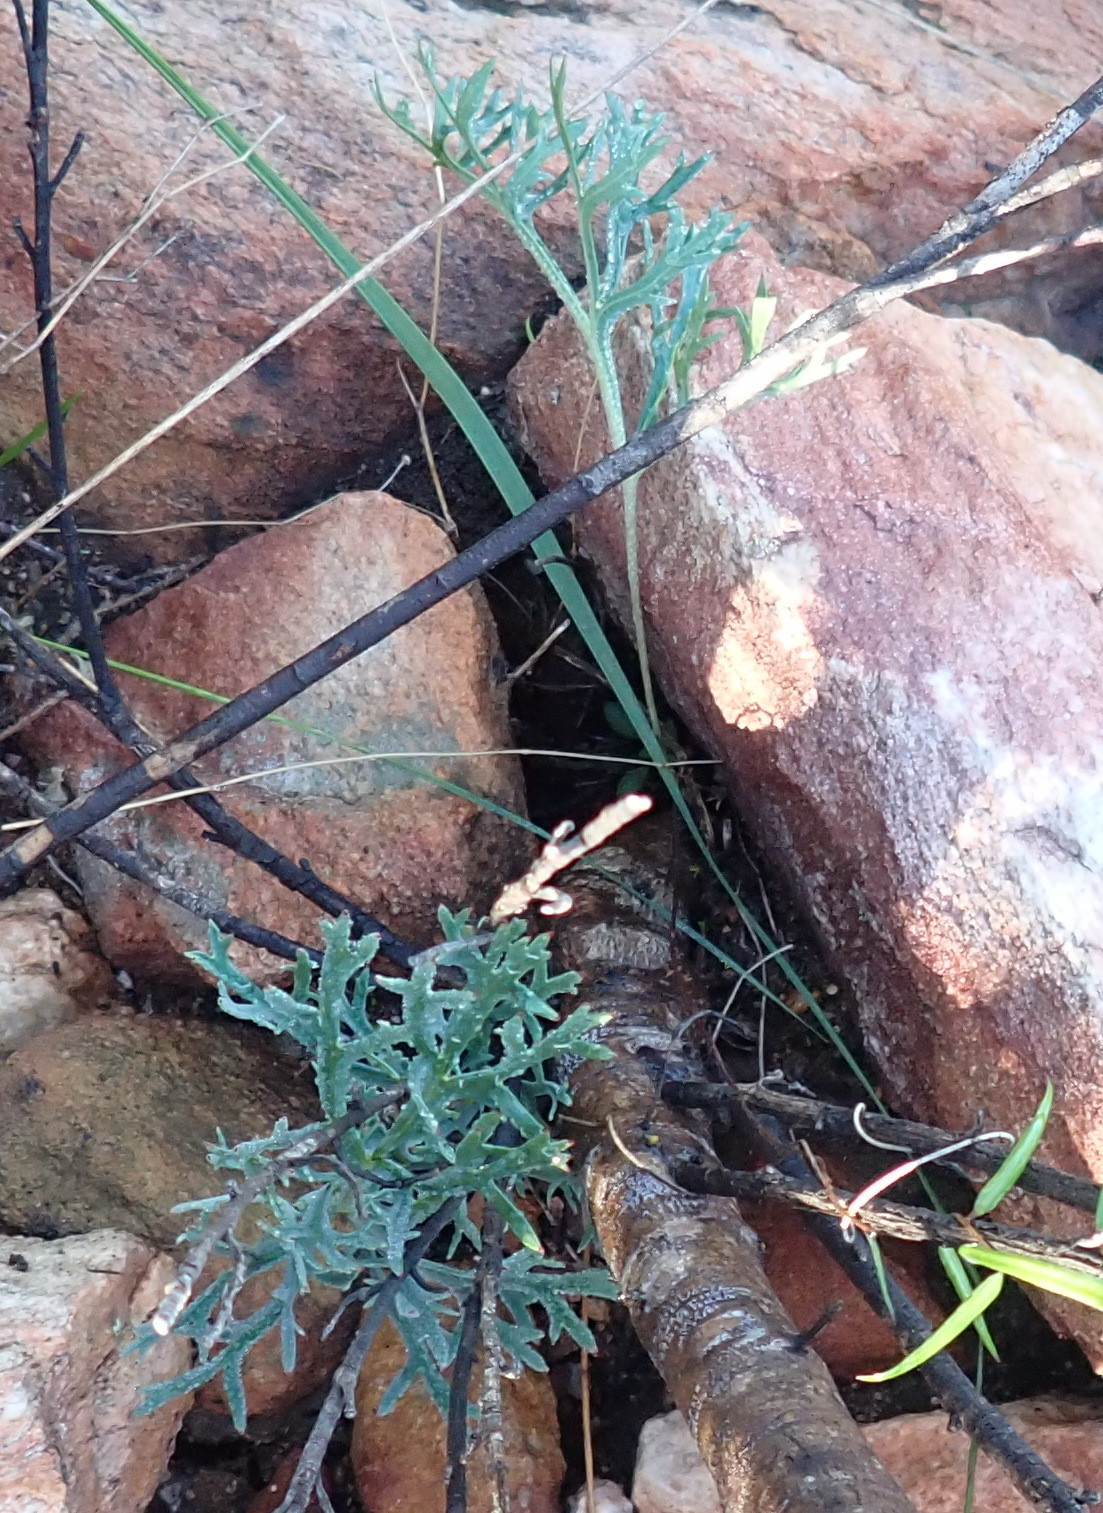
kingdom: Plantae
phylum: Tracheophyta
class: Magnoliopsida
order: Geraniales
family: Geraniaceae
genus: Pelargonium
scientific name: Pelargonium pillansii
